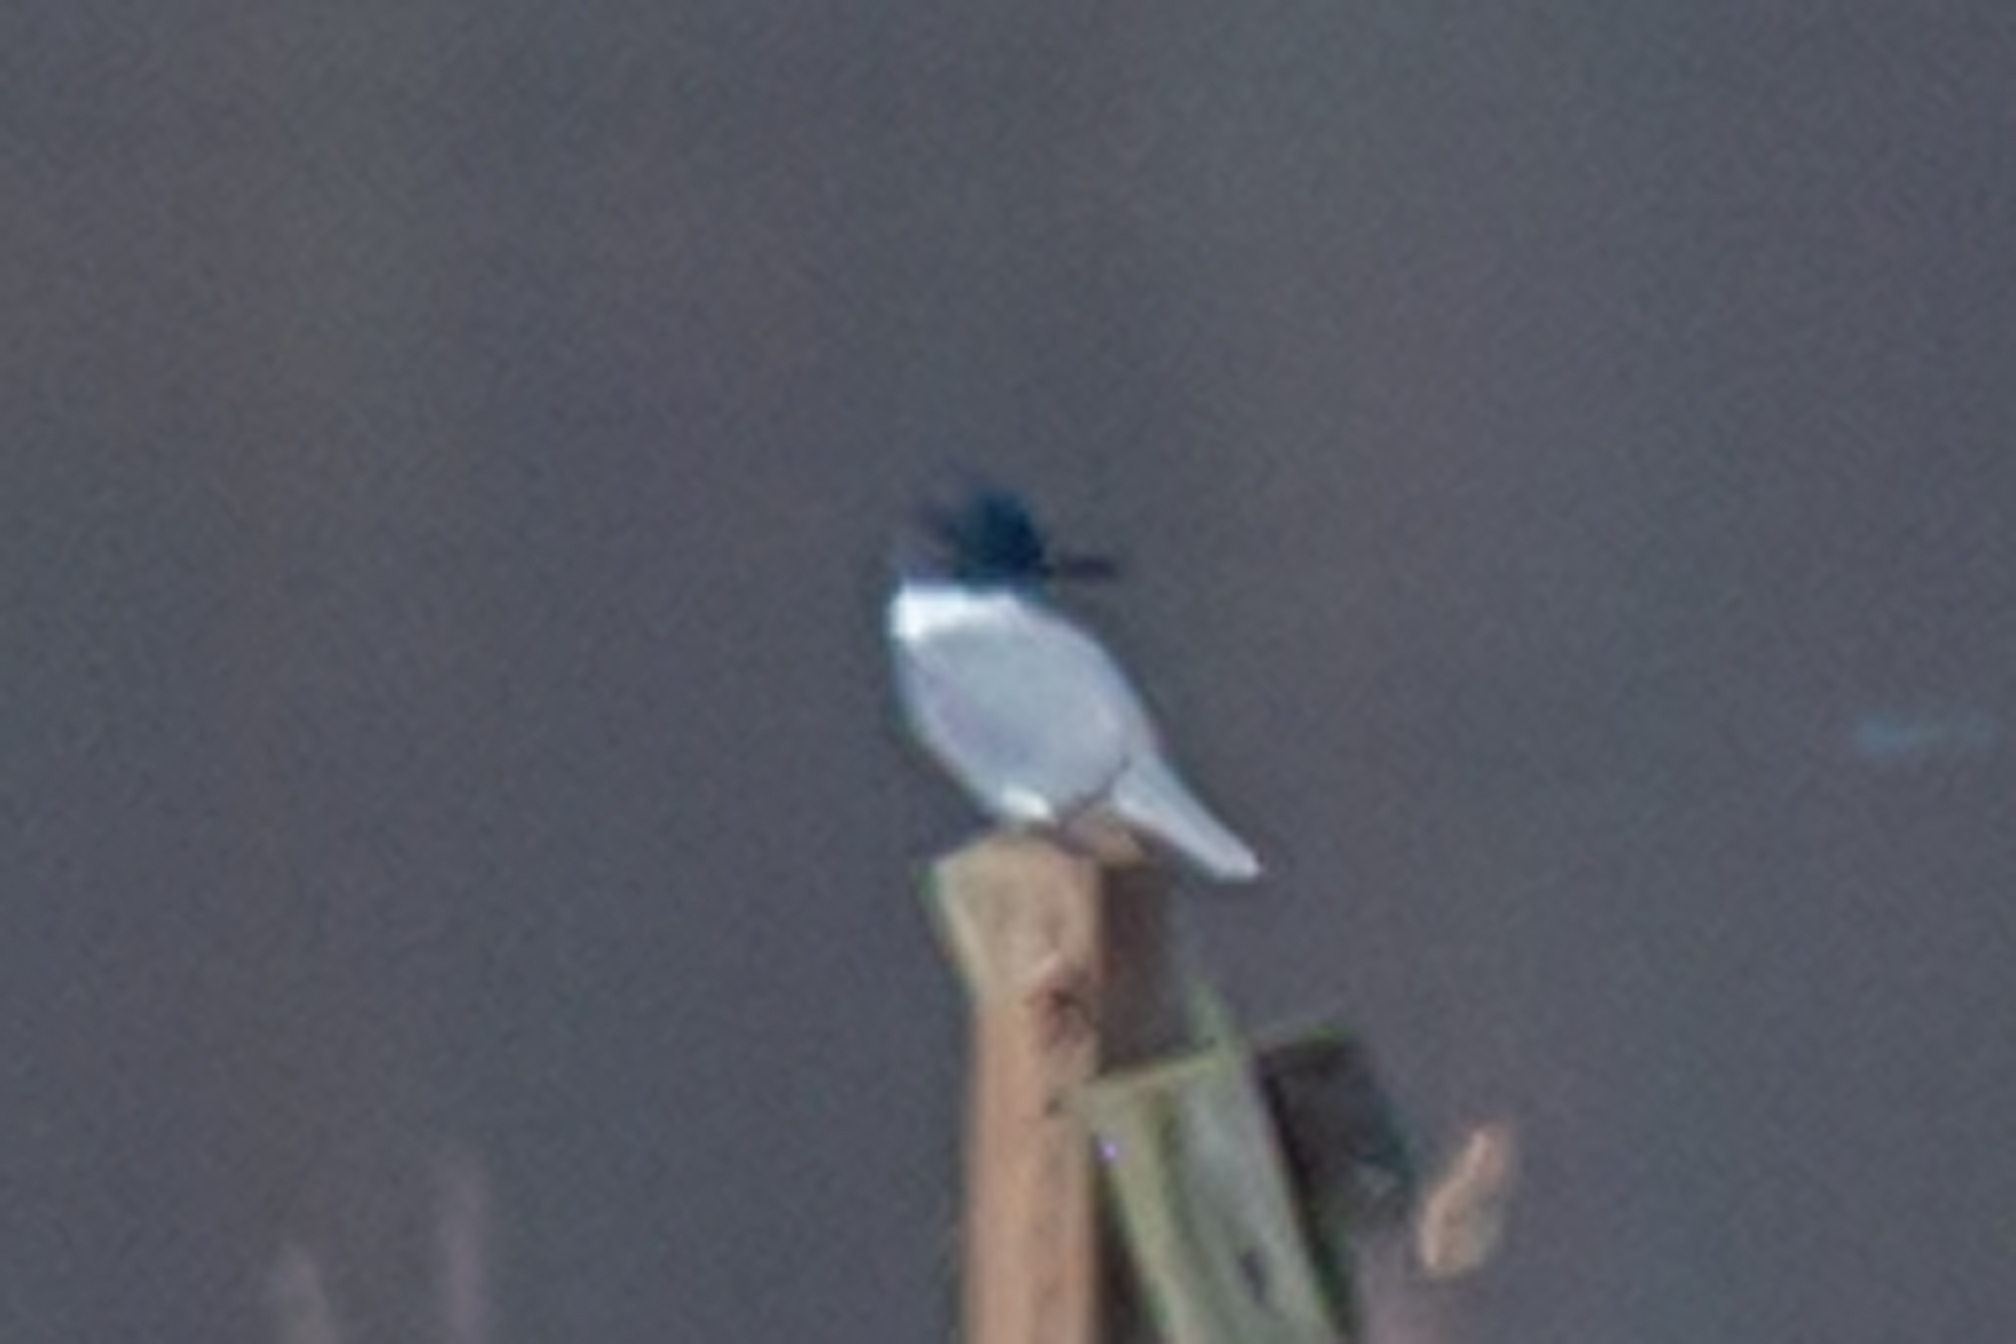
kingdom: Animalia
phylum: Chordata
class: Aves
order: Coraciiformes
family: Alcedinidae
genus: Megaceryle
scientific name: Megaceryle alcyon
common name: Belted kingfisher
